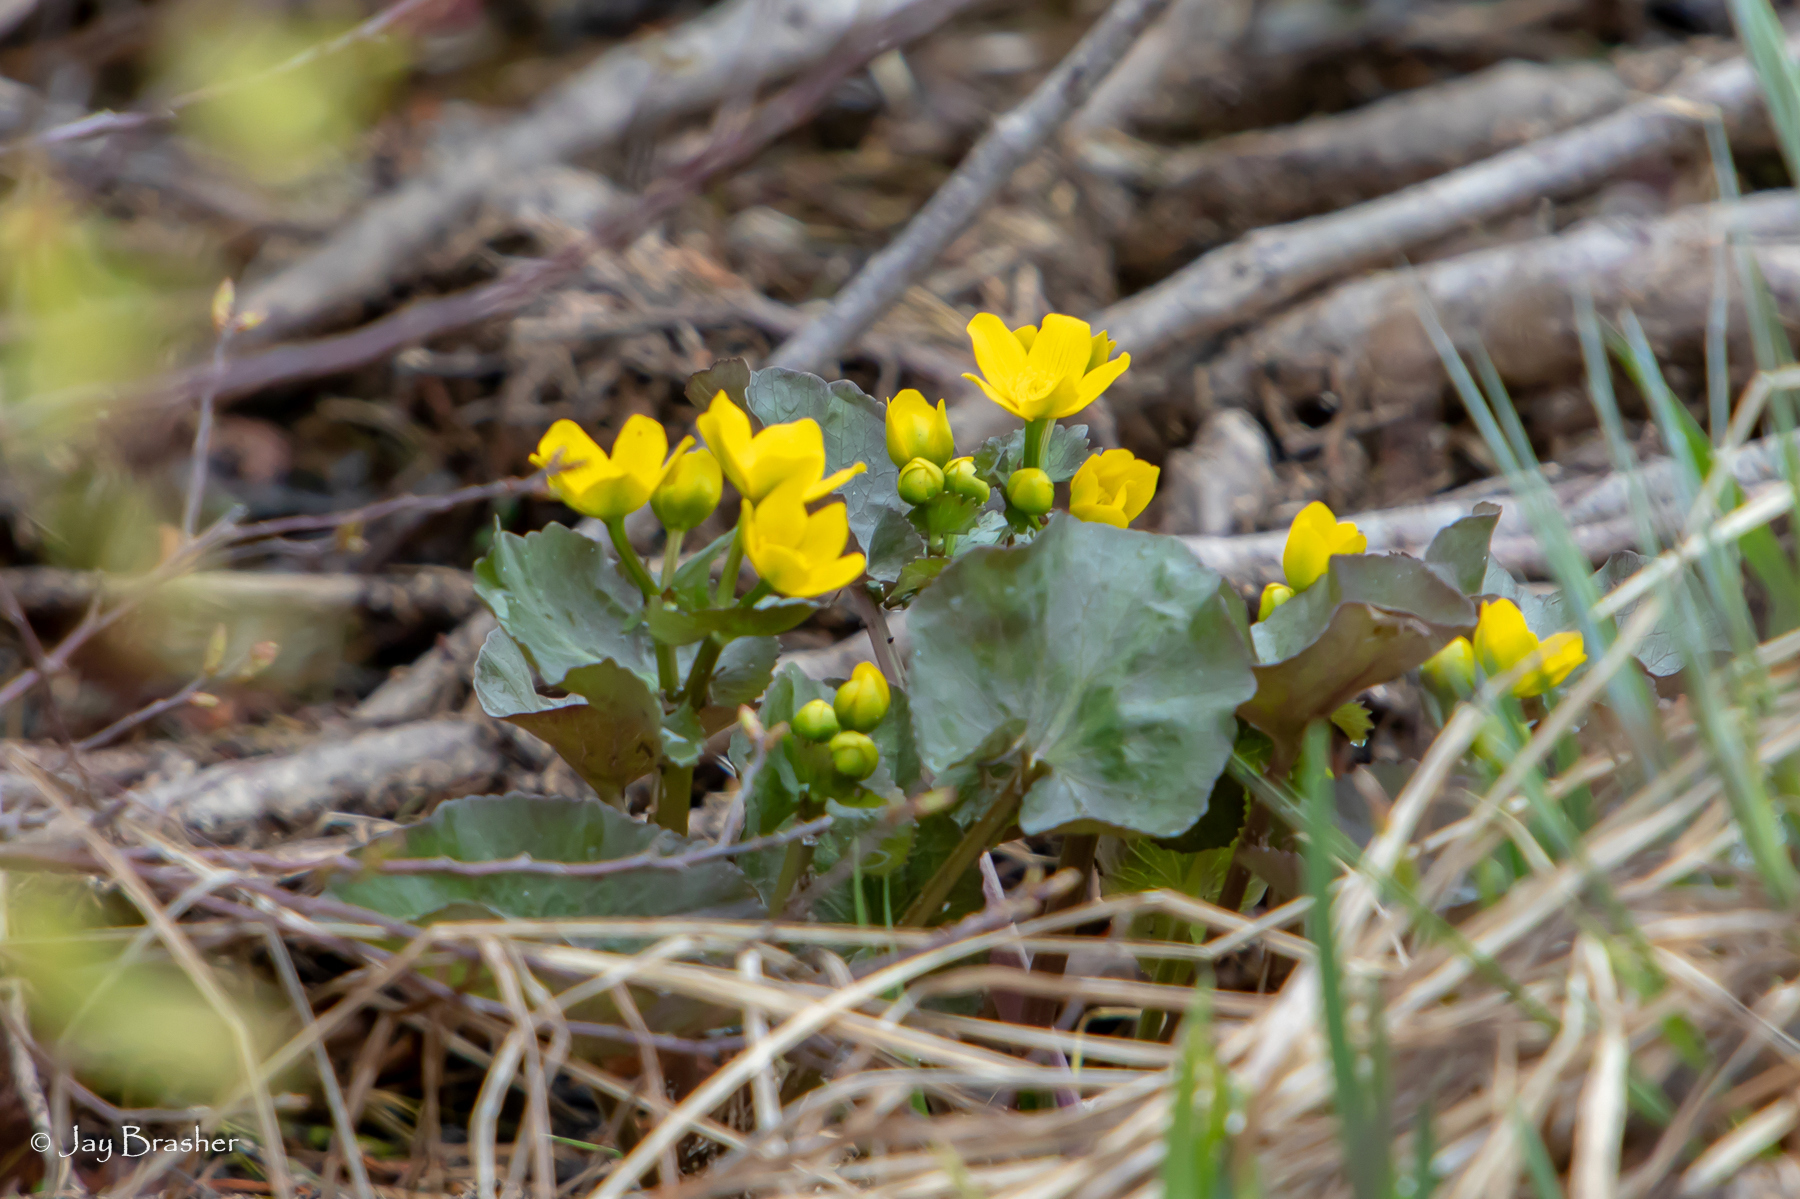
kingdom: Plantae
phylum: Tracheophyta
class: Magnoliopsida
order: Ranunculales
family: Ranunculaceae
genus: Caltha
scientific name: Caltha palustris
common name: Marsh marigold
